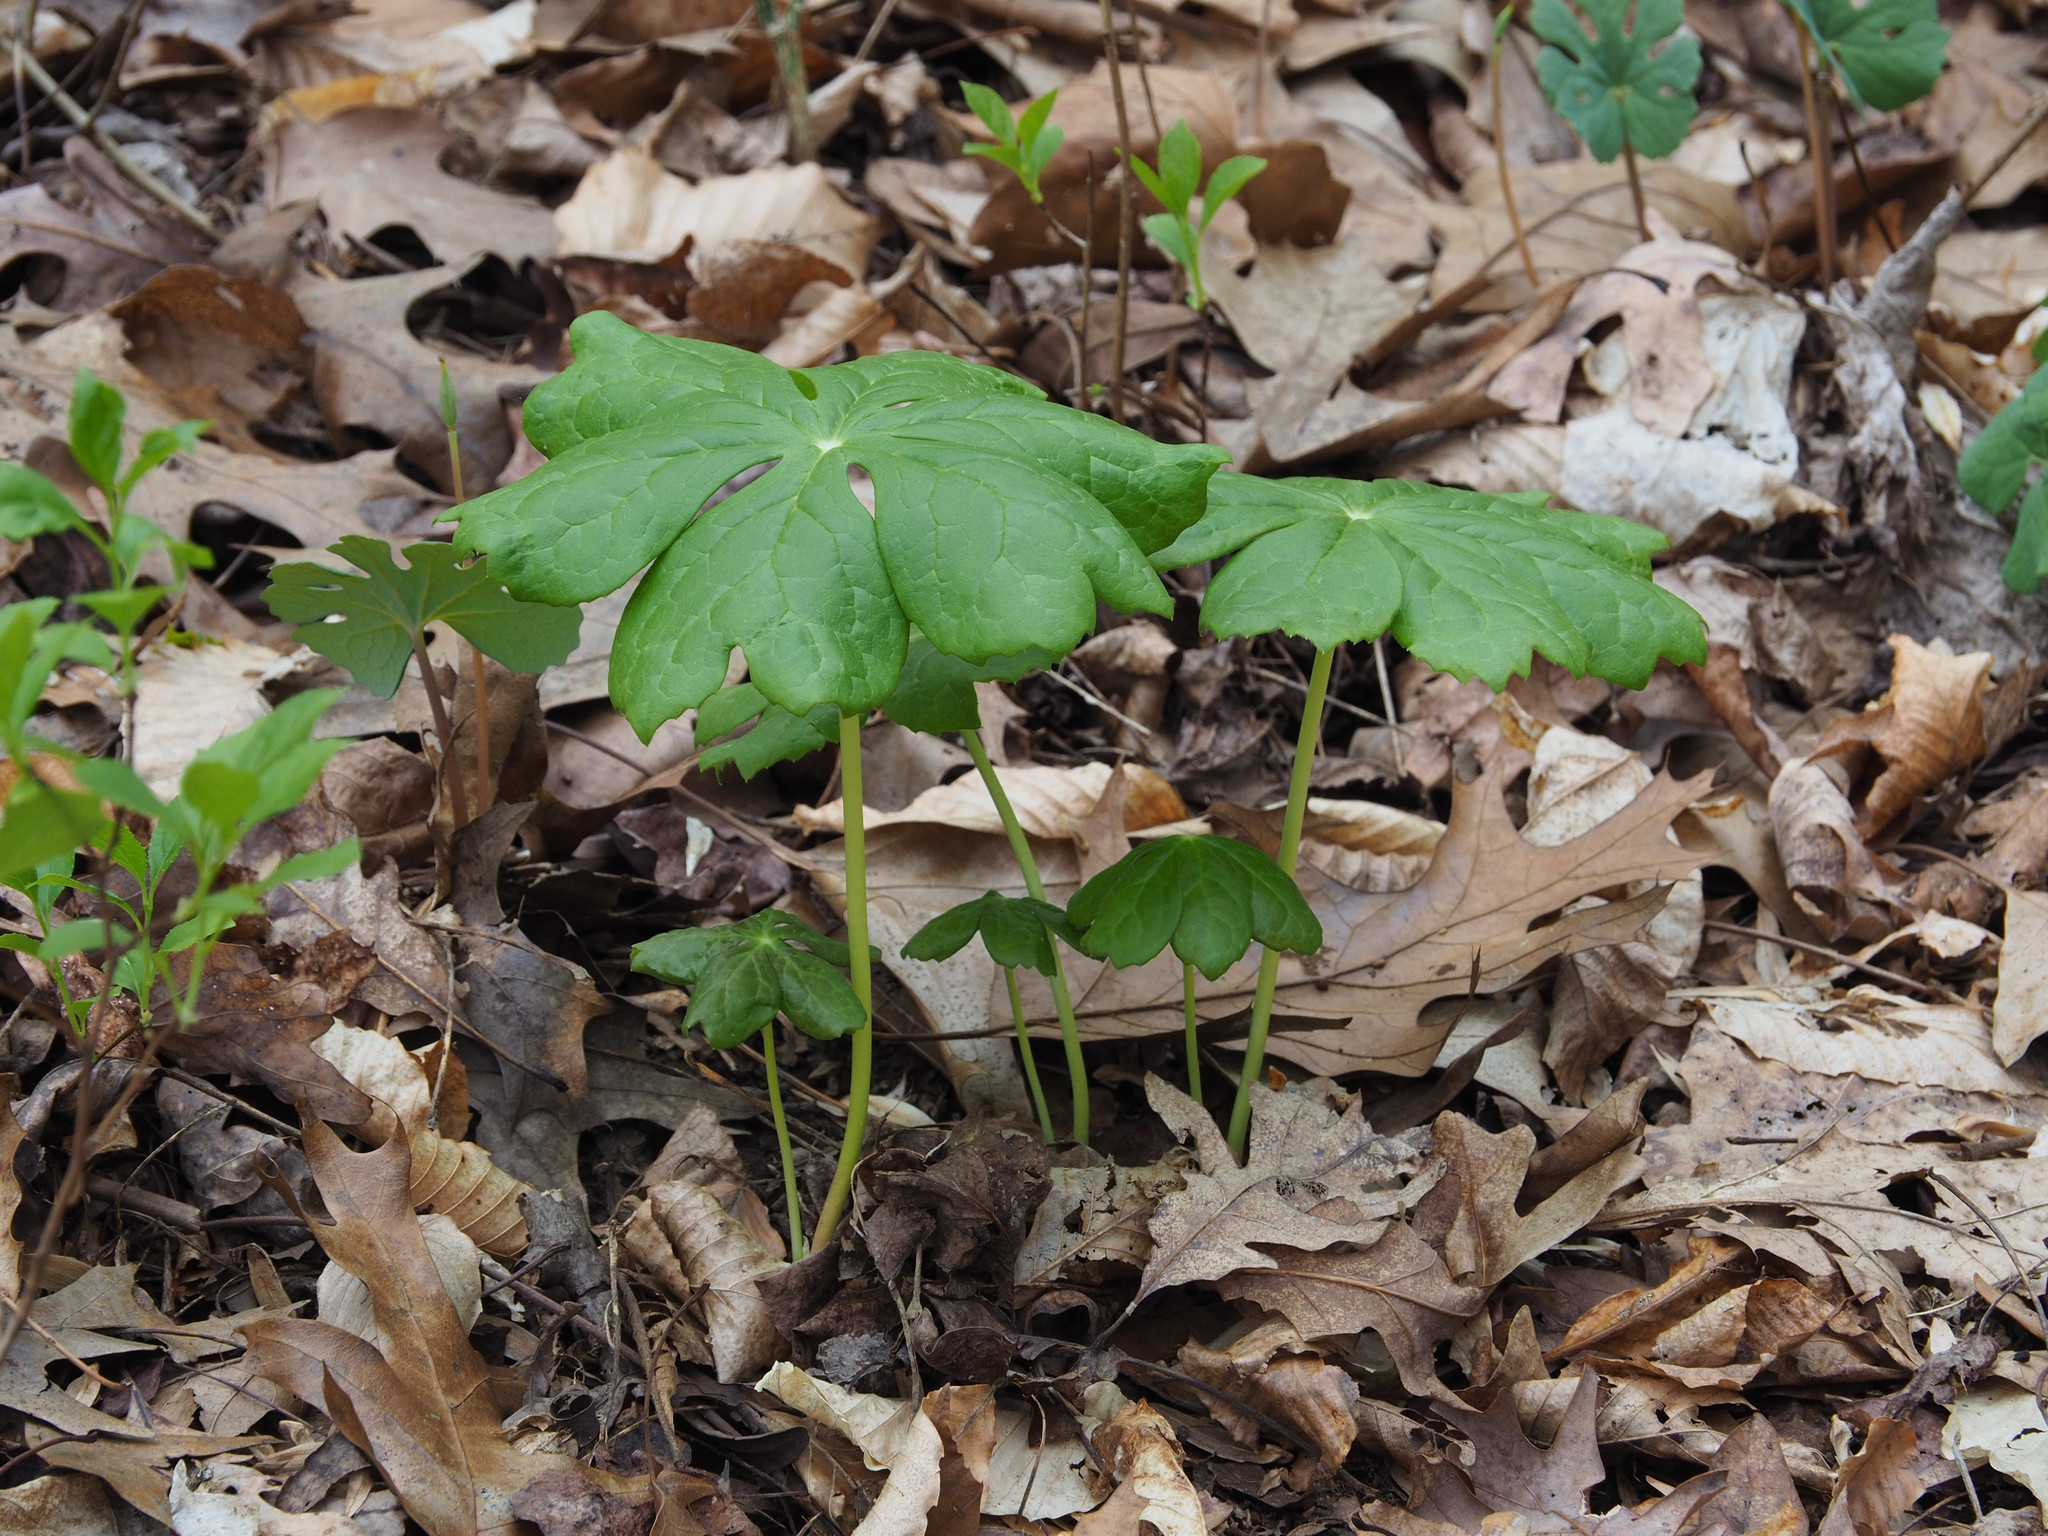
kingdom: Plantae
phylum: Tracheophyta
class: Magnoliopsida
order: Ranunculales
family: Berberidaceae
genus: Podophyllum
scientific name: Podophyllum peltatum
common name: Wild mandrake
